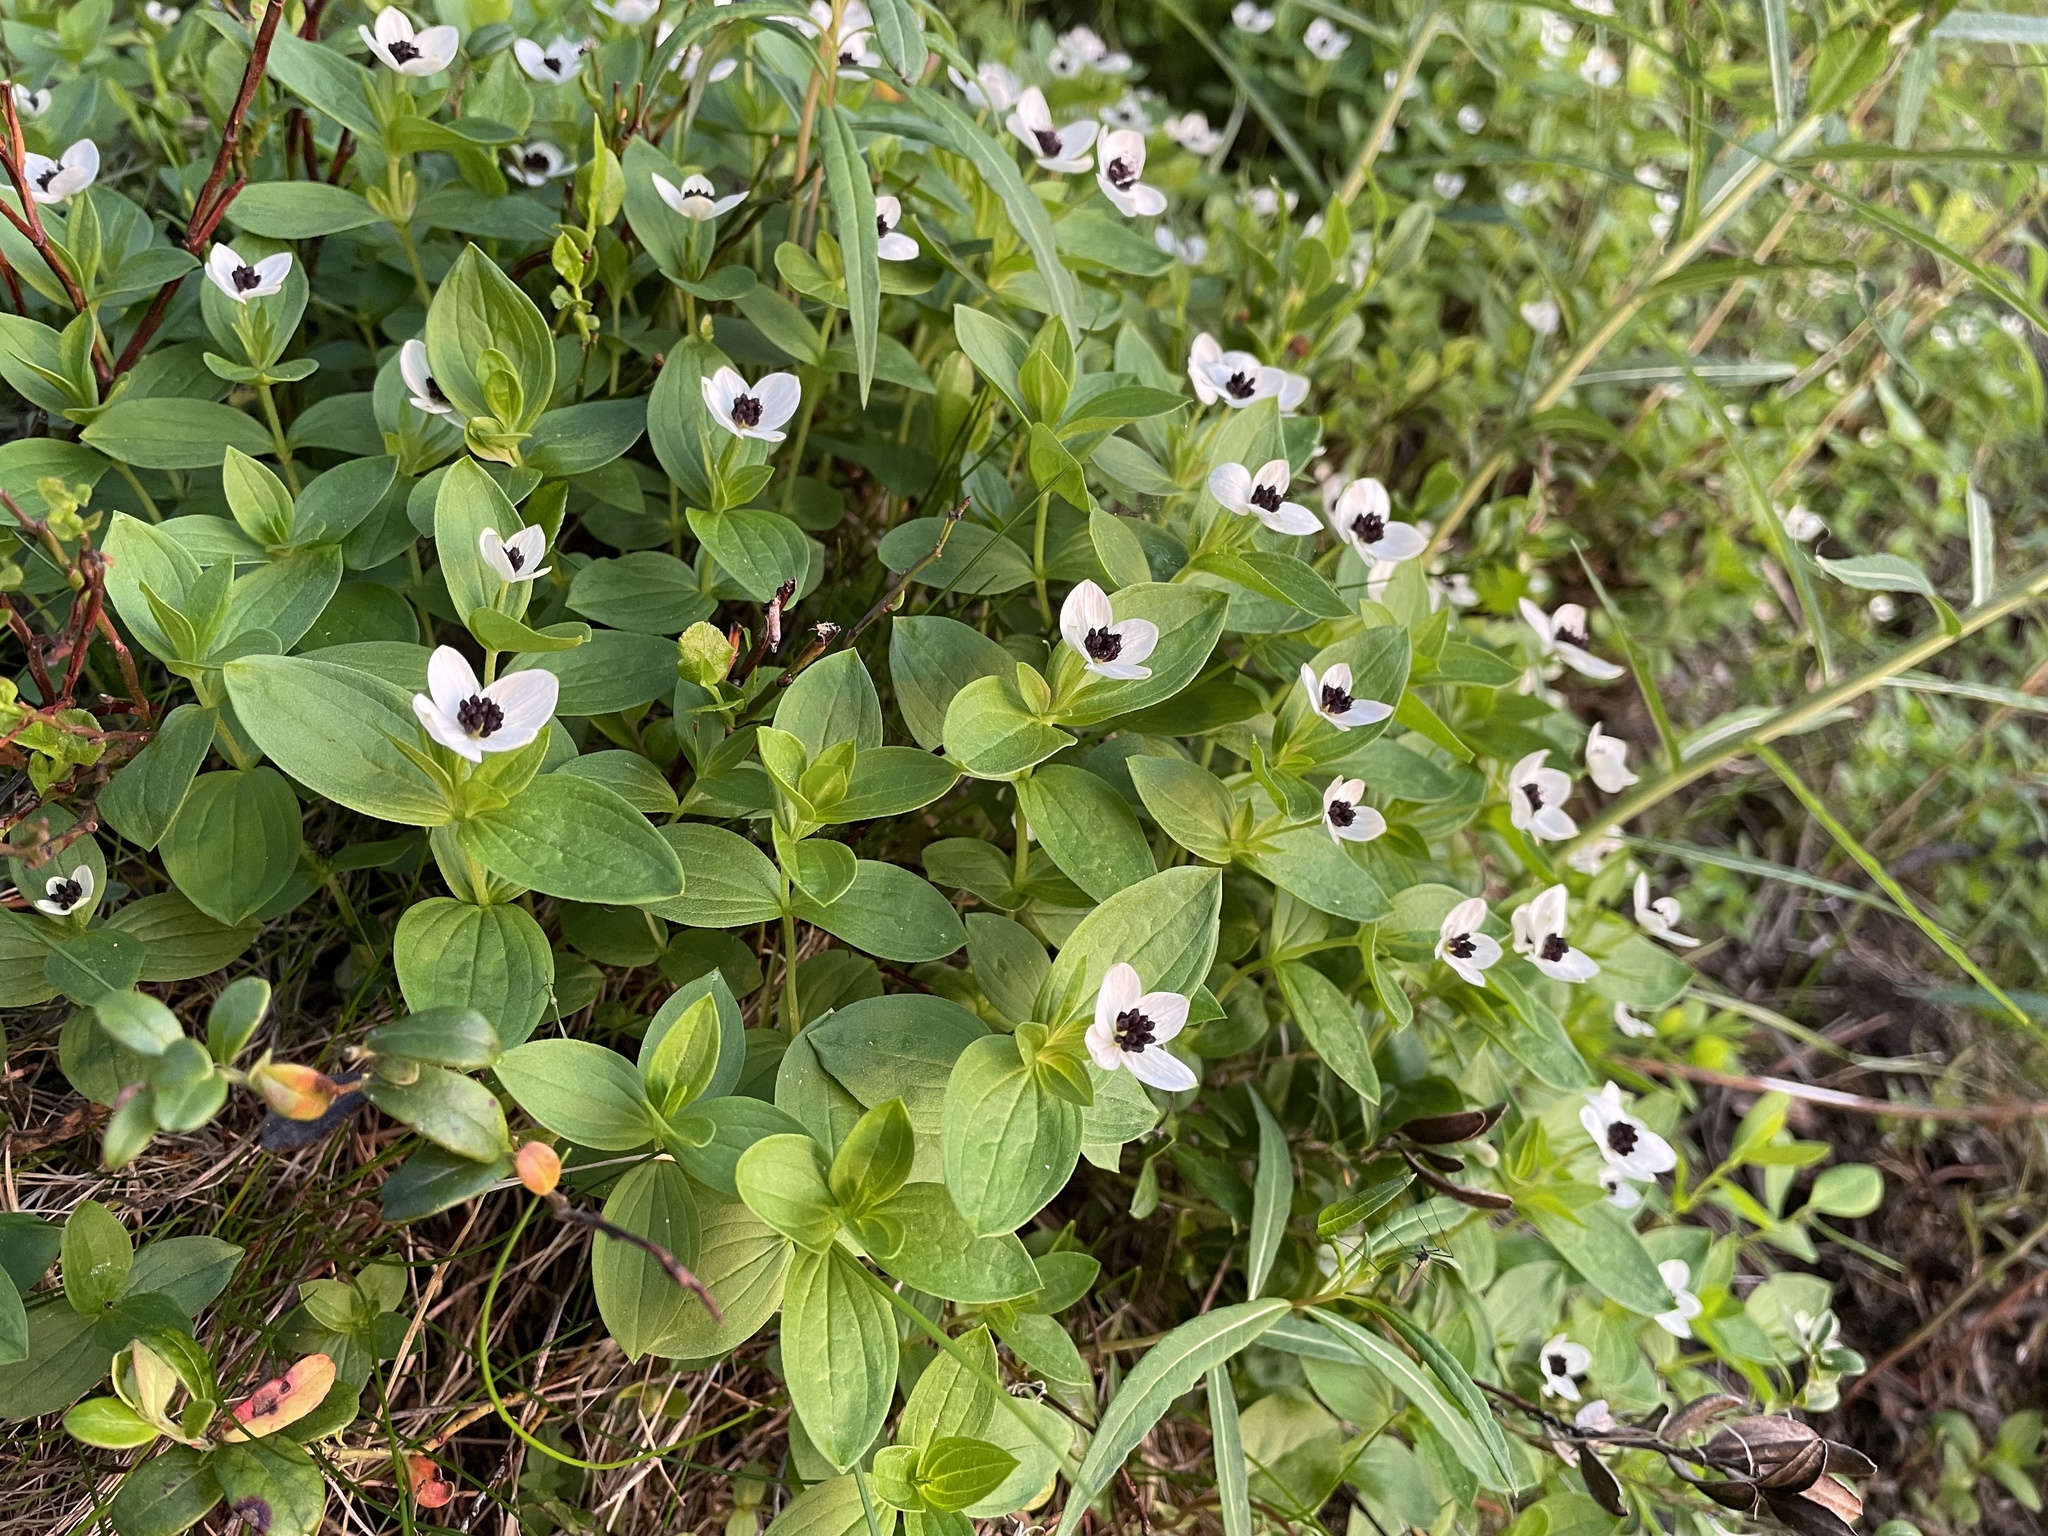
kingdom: Plantae
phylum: Tracheophyta
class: Magnoliopsida
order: Cornales
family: Cornaceae
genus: Cornus
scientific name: Cornus suecica
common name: Dwarf cornel
